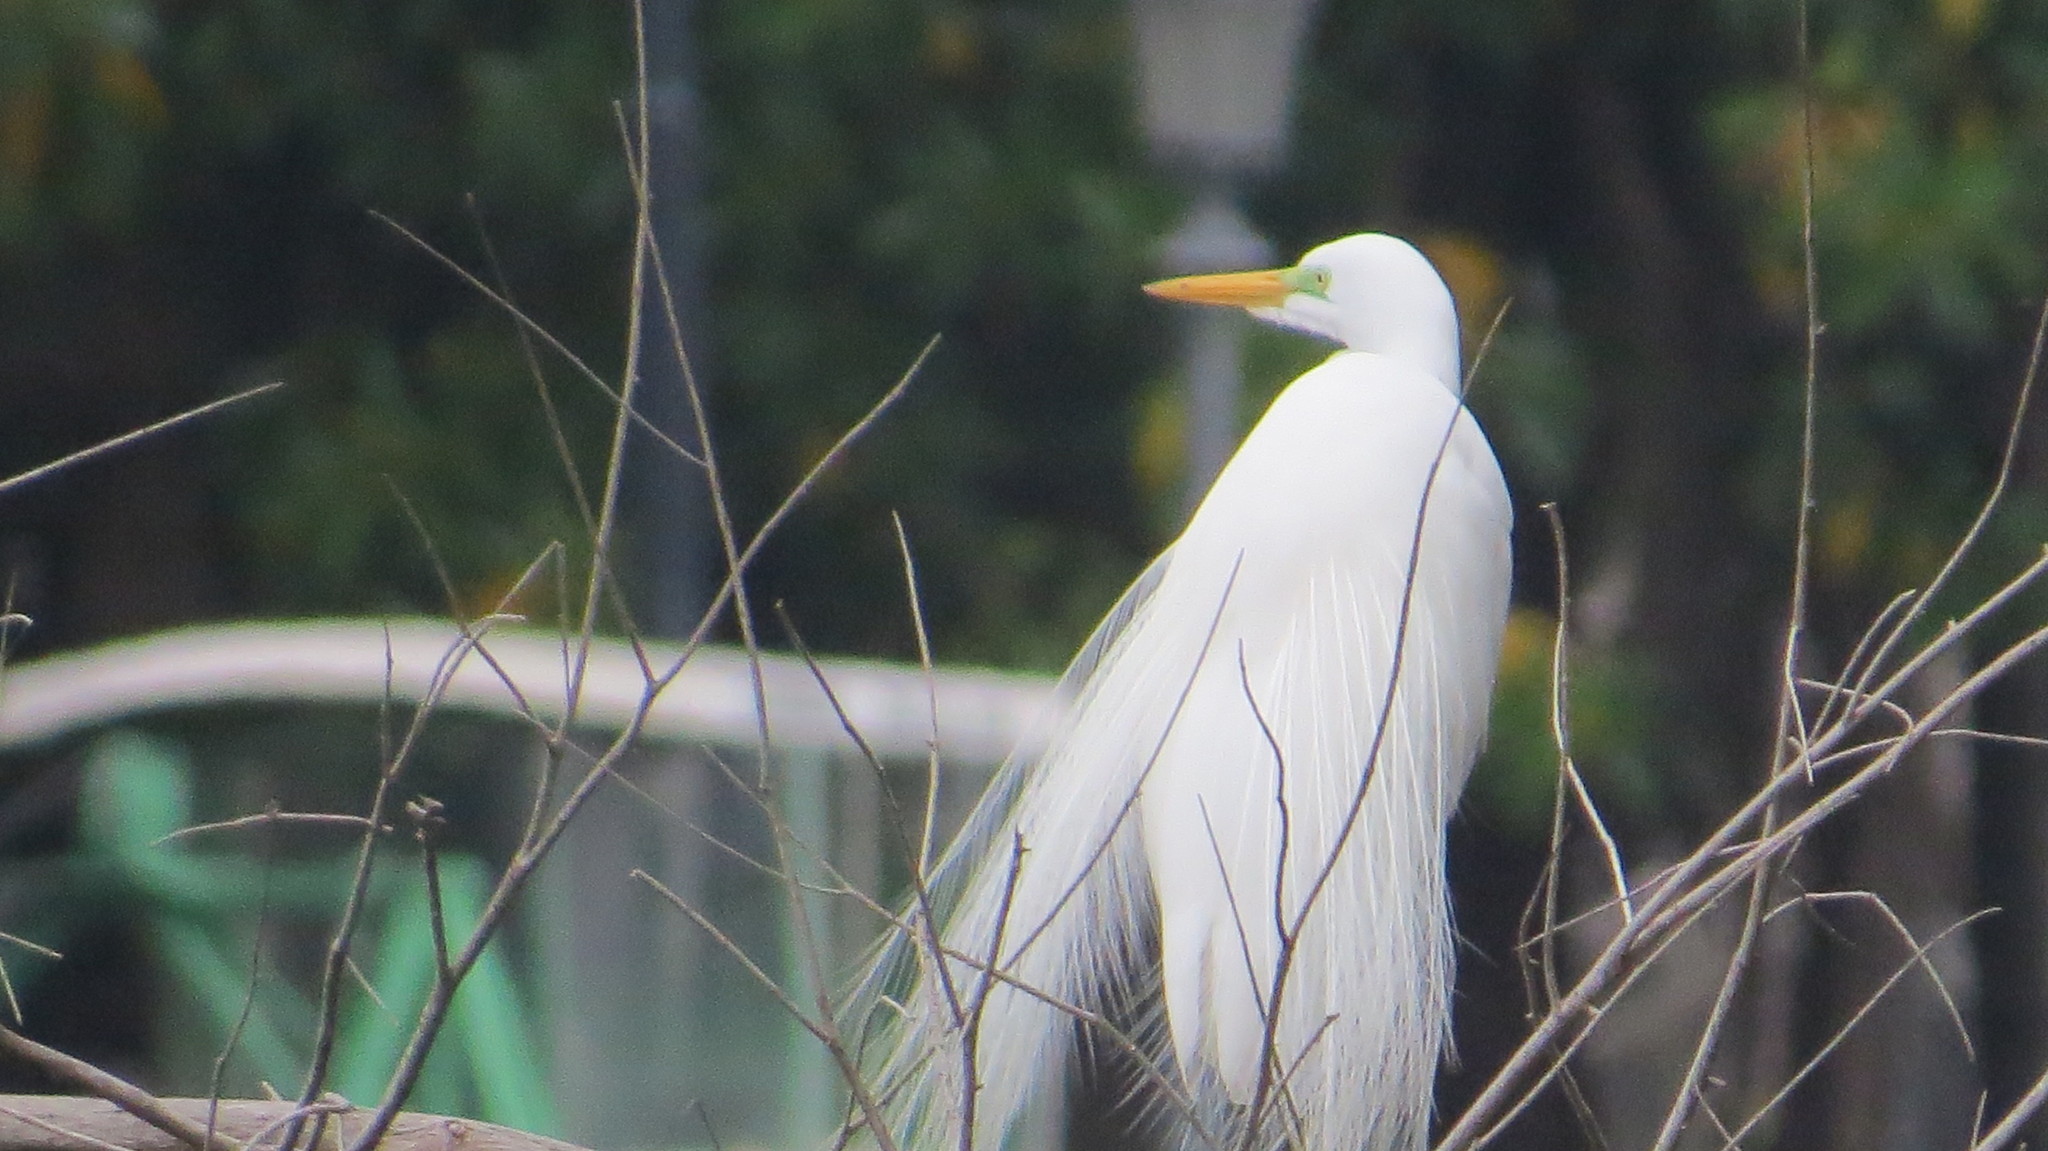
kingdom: Animalia
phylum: Chordata
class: Aves
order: Pelecaniformes
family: Ardeidae
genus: Ardea
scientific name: Ardea alba
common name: Great egret
